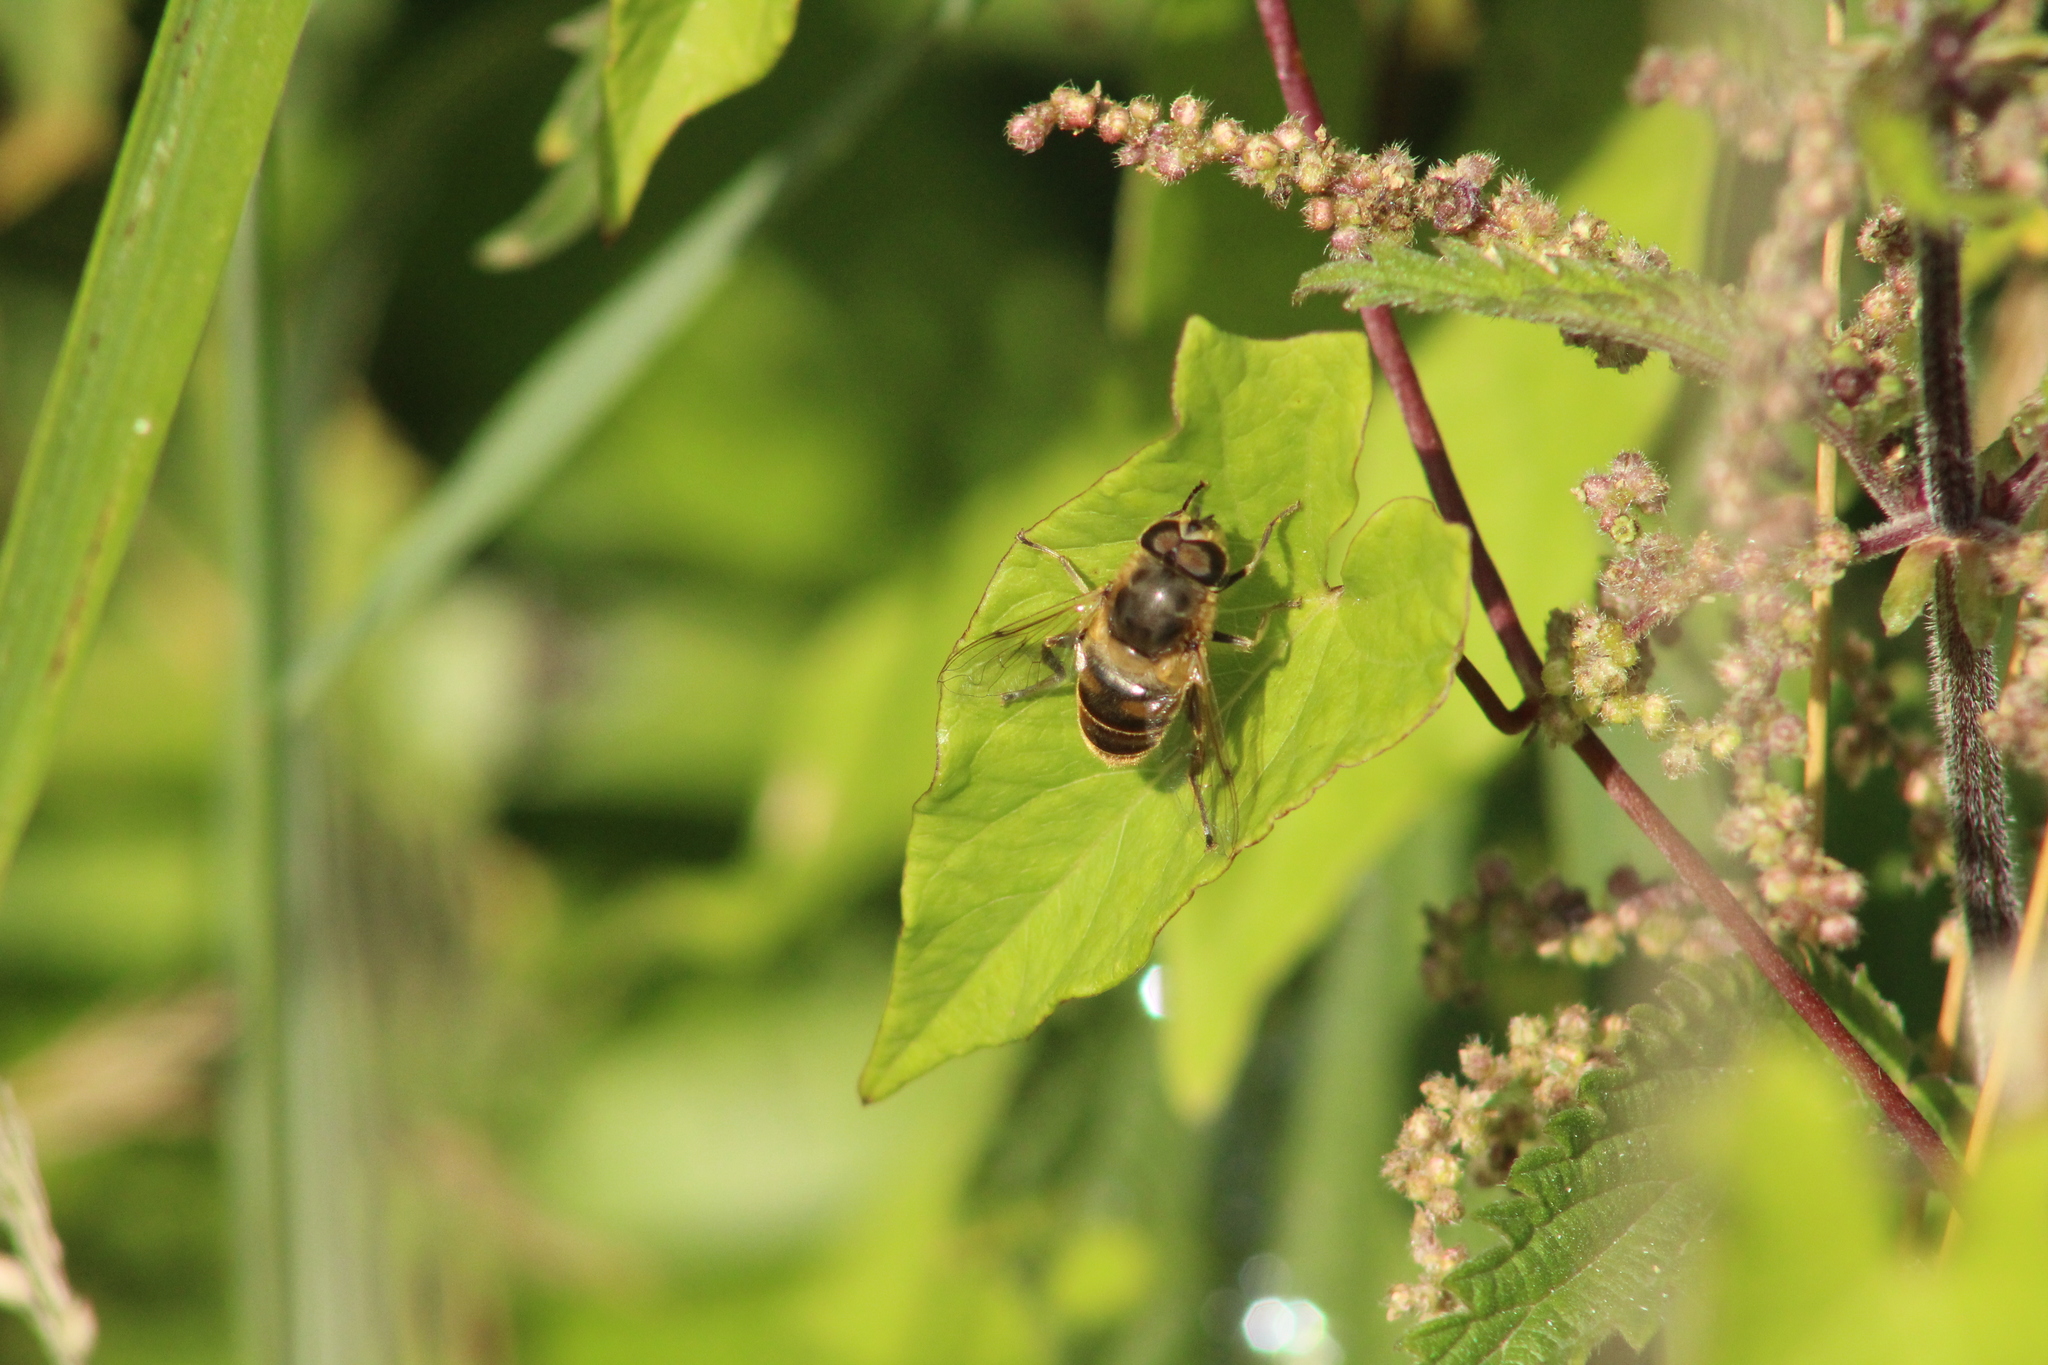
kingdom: Animalia
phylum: Arthropoda
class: Insecta
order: Diptera
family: Syrphidae
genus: Eristalis
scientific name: Eristalis tenax
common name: Drone fly
